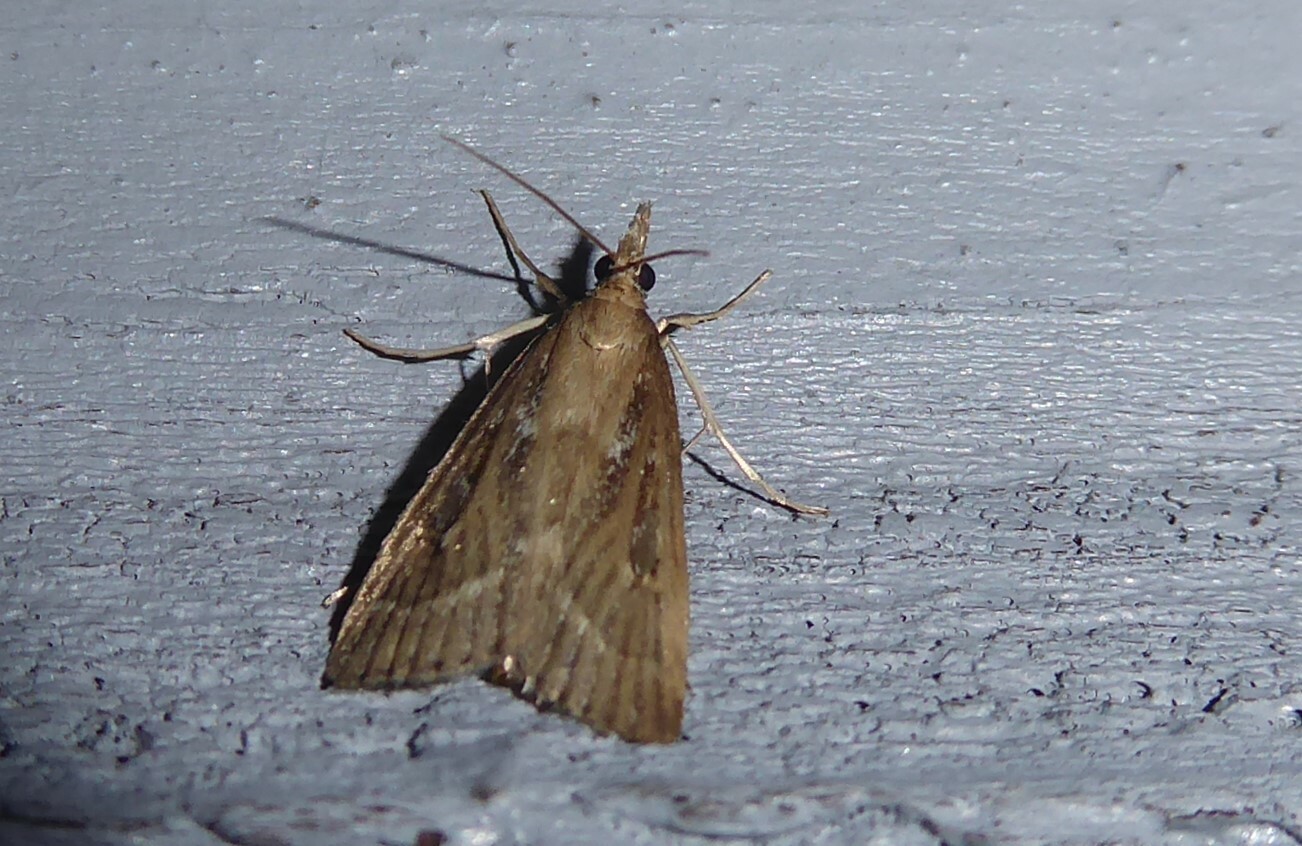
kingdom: Animalia
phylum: Arthropoda
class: Insecta
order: Lepidoptera
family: Crambidae
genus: Eudonia
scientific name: Eudonia octophora
